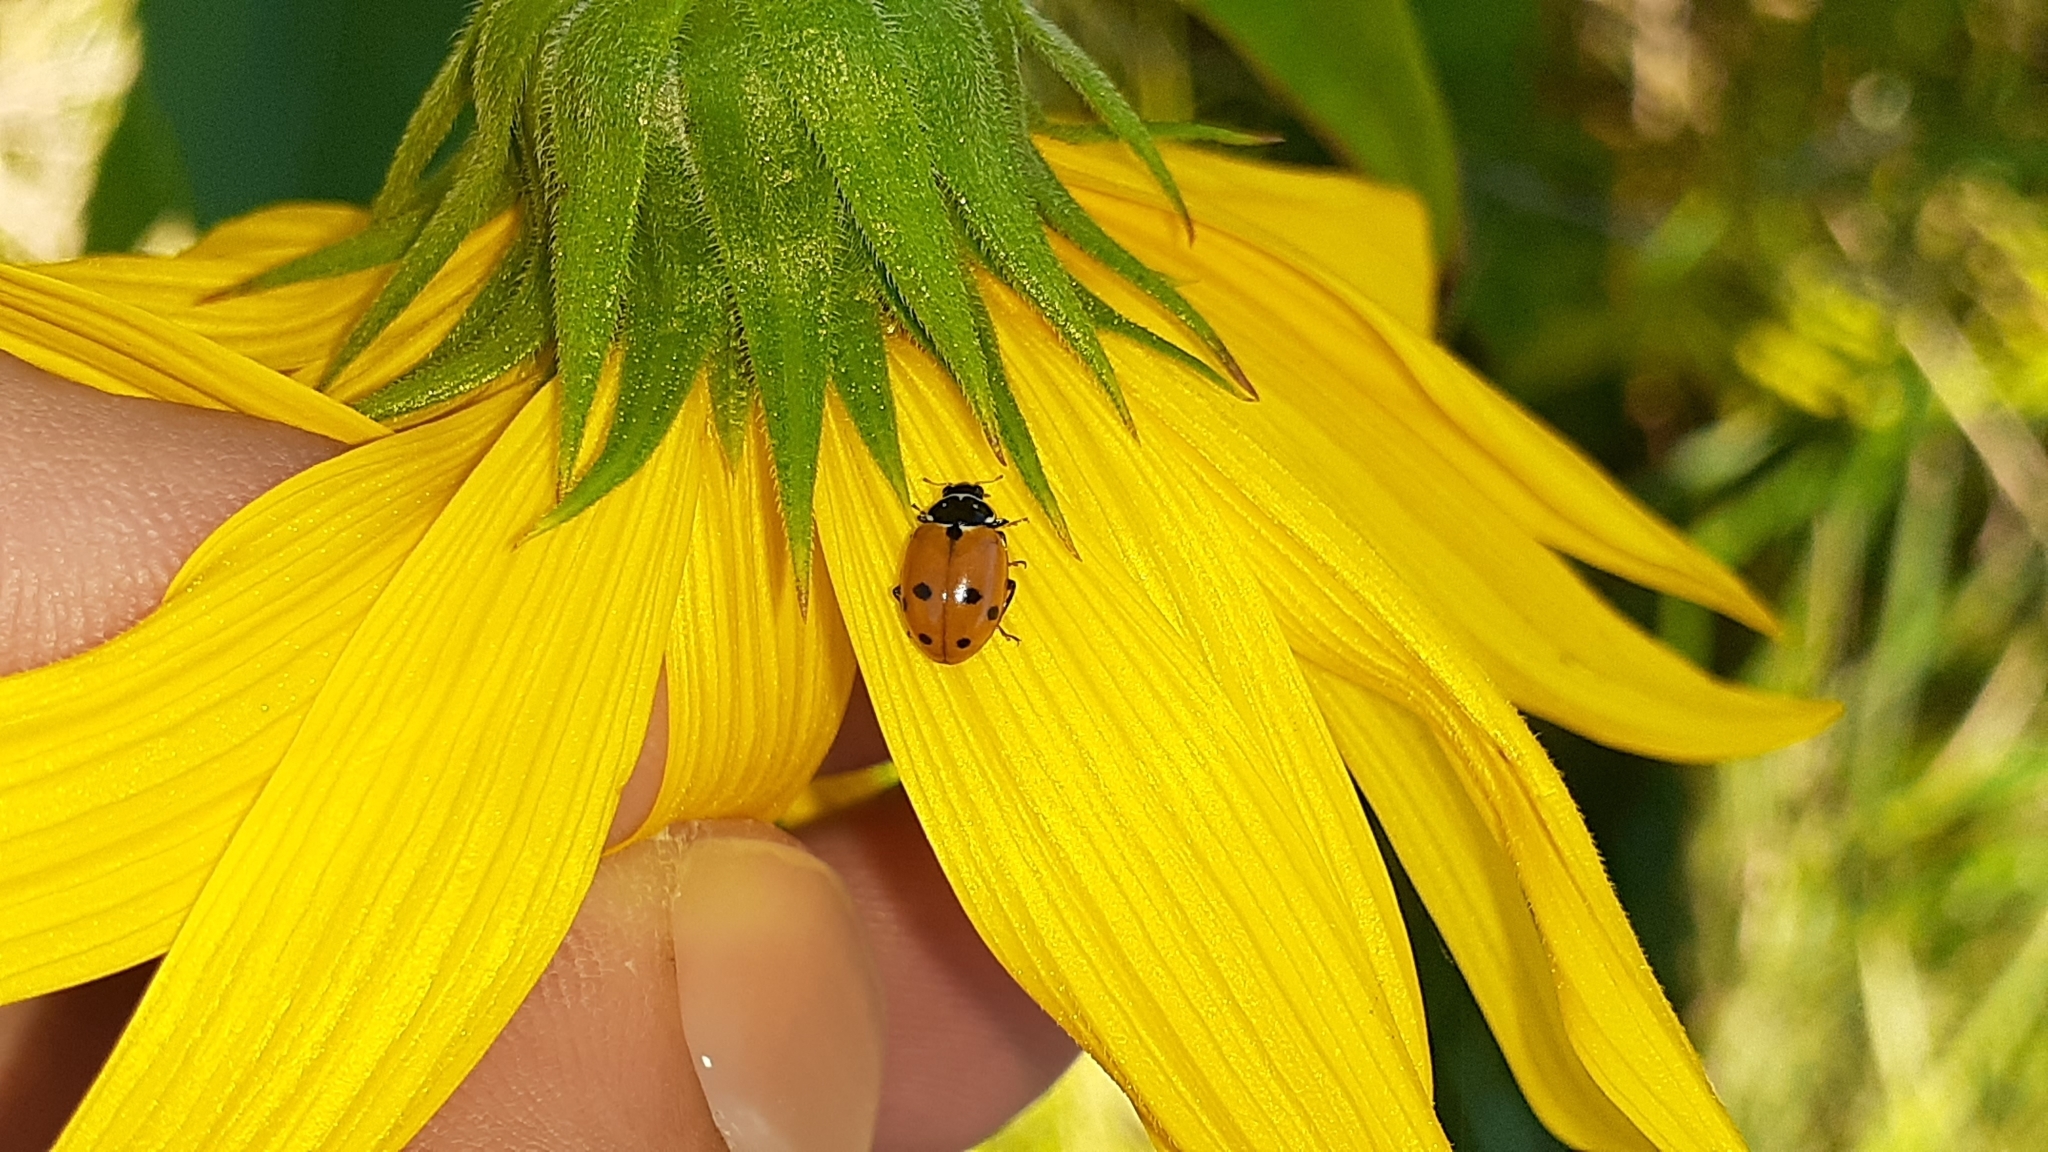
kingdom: Animalia
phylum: Arthropoda
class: Insecta
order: Coleoptera
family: Coccinellidae
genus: Hippodamia
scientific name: Hippodamia variegata
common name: Ladybird beetle
